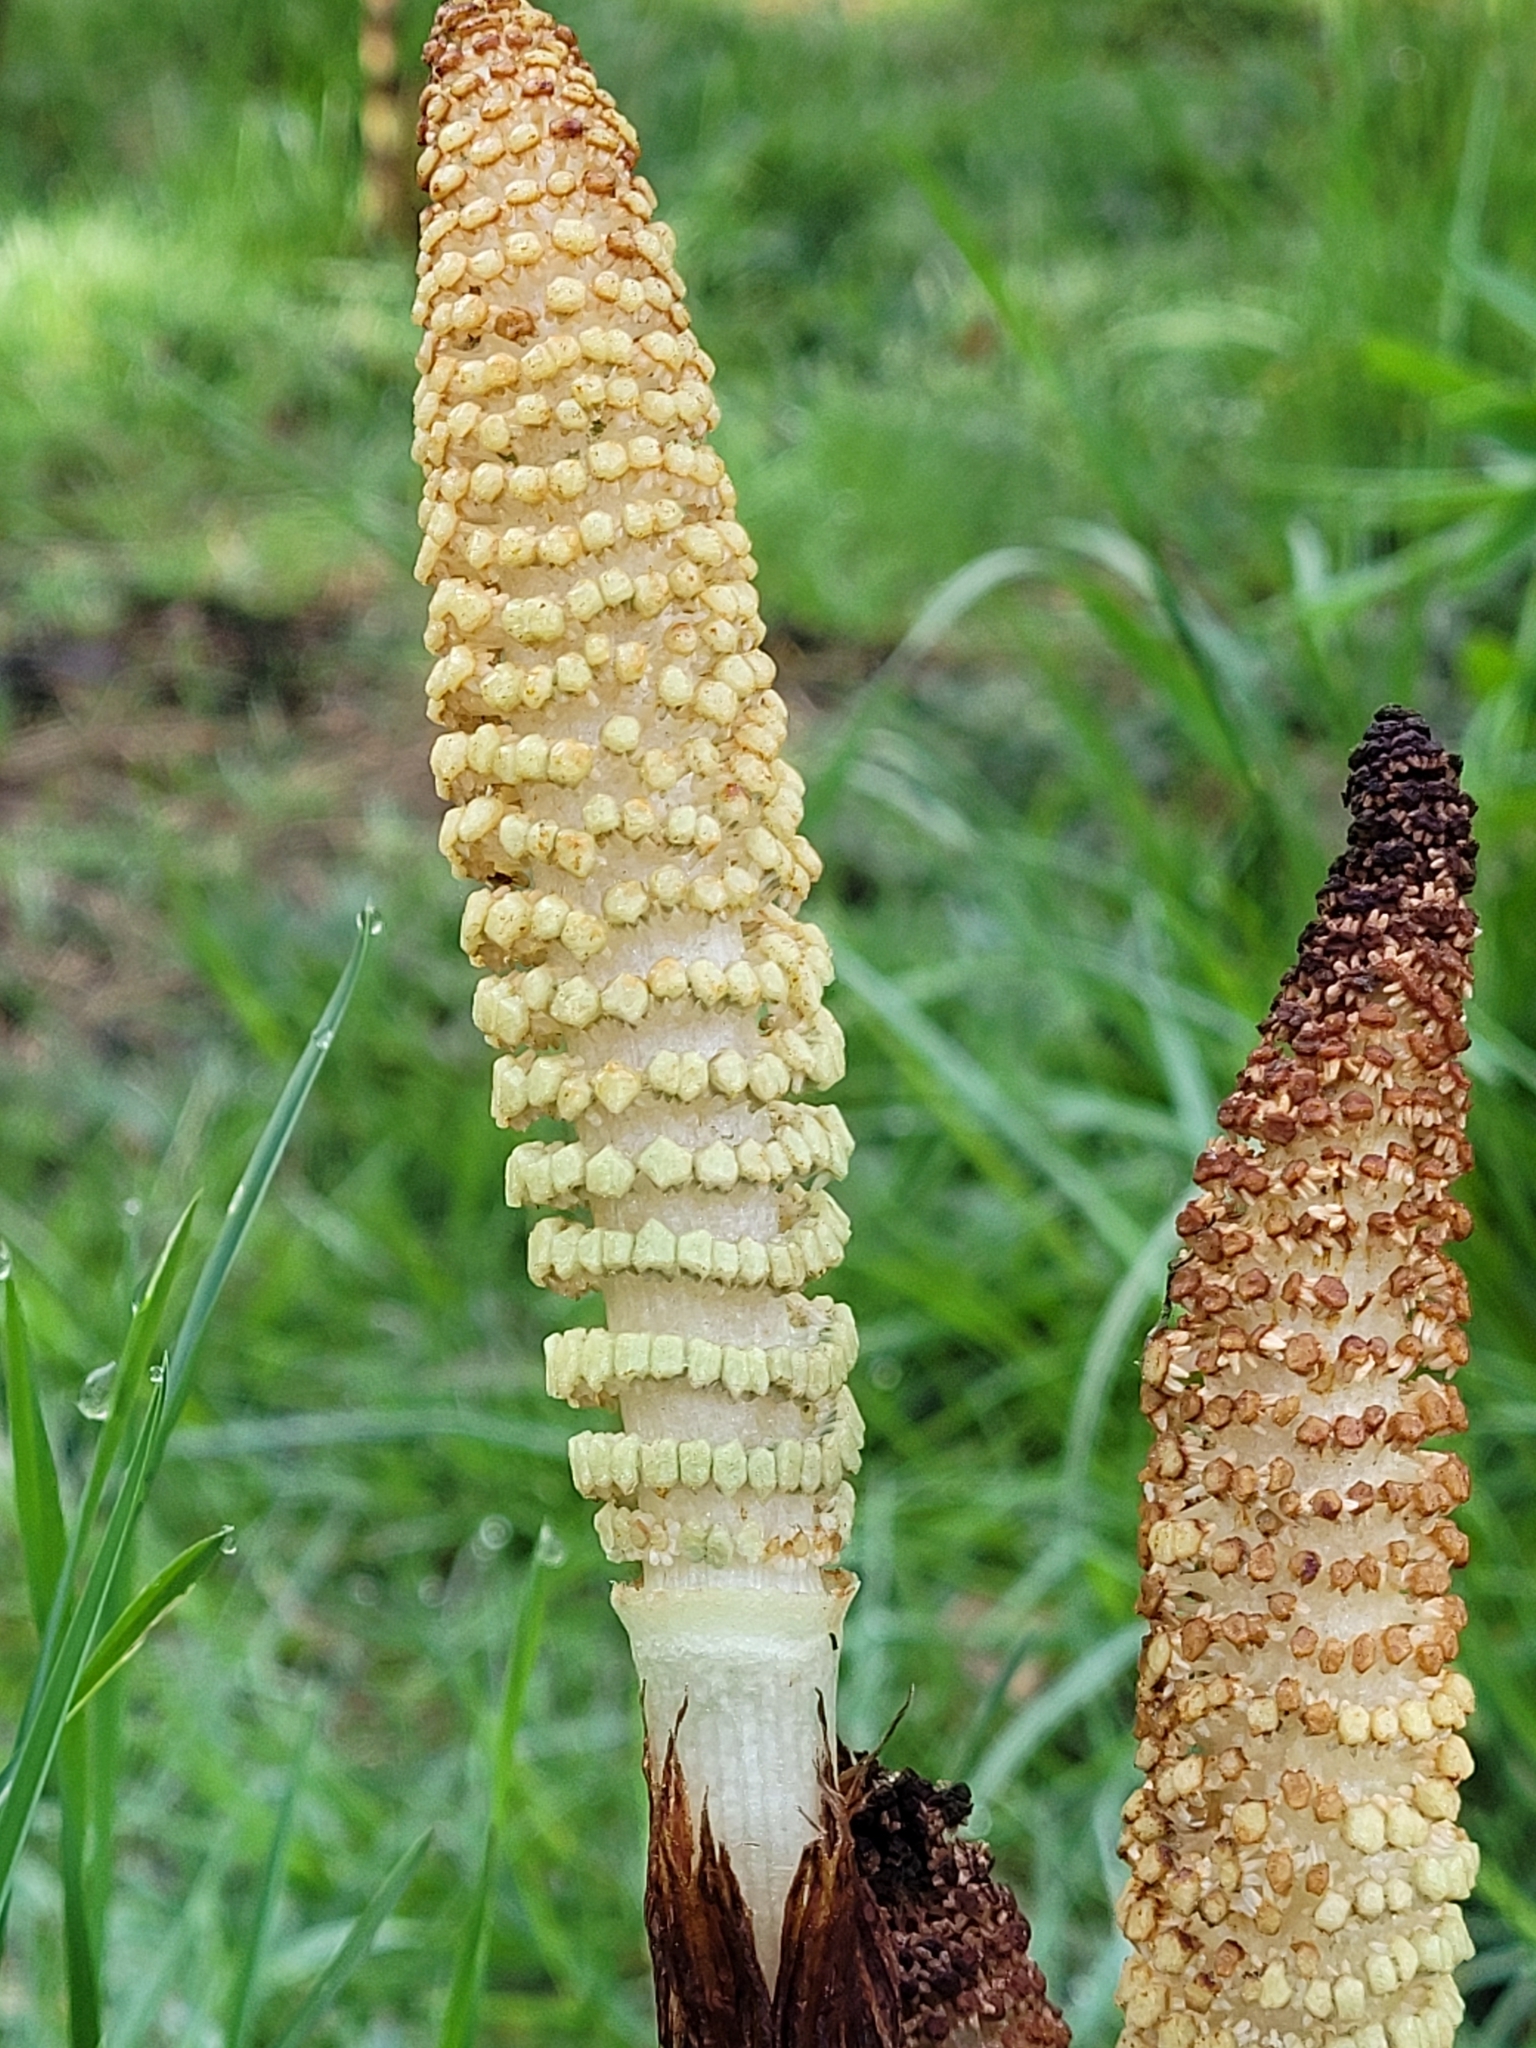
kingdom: Plantae
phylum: Tracheophyta
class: Polypodiopsida
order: Equisetales
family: Equisetaceae
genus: Equisetum
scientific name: Equisetum braunii
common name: Braun's horsetail
